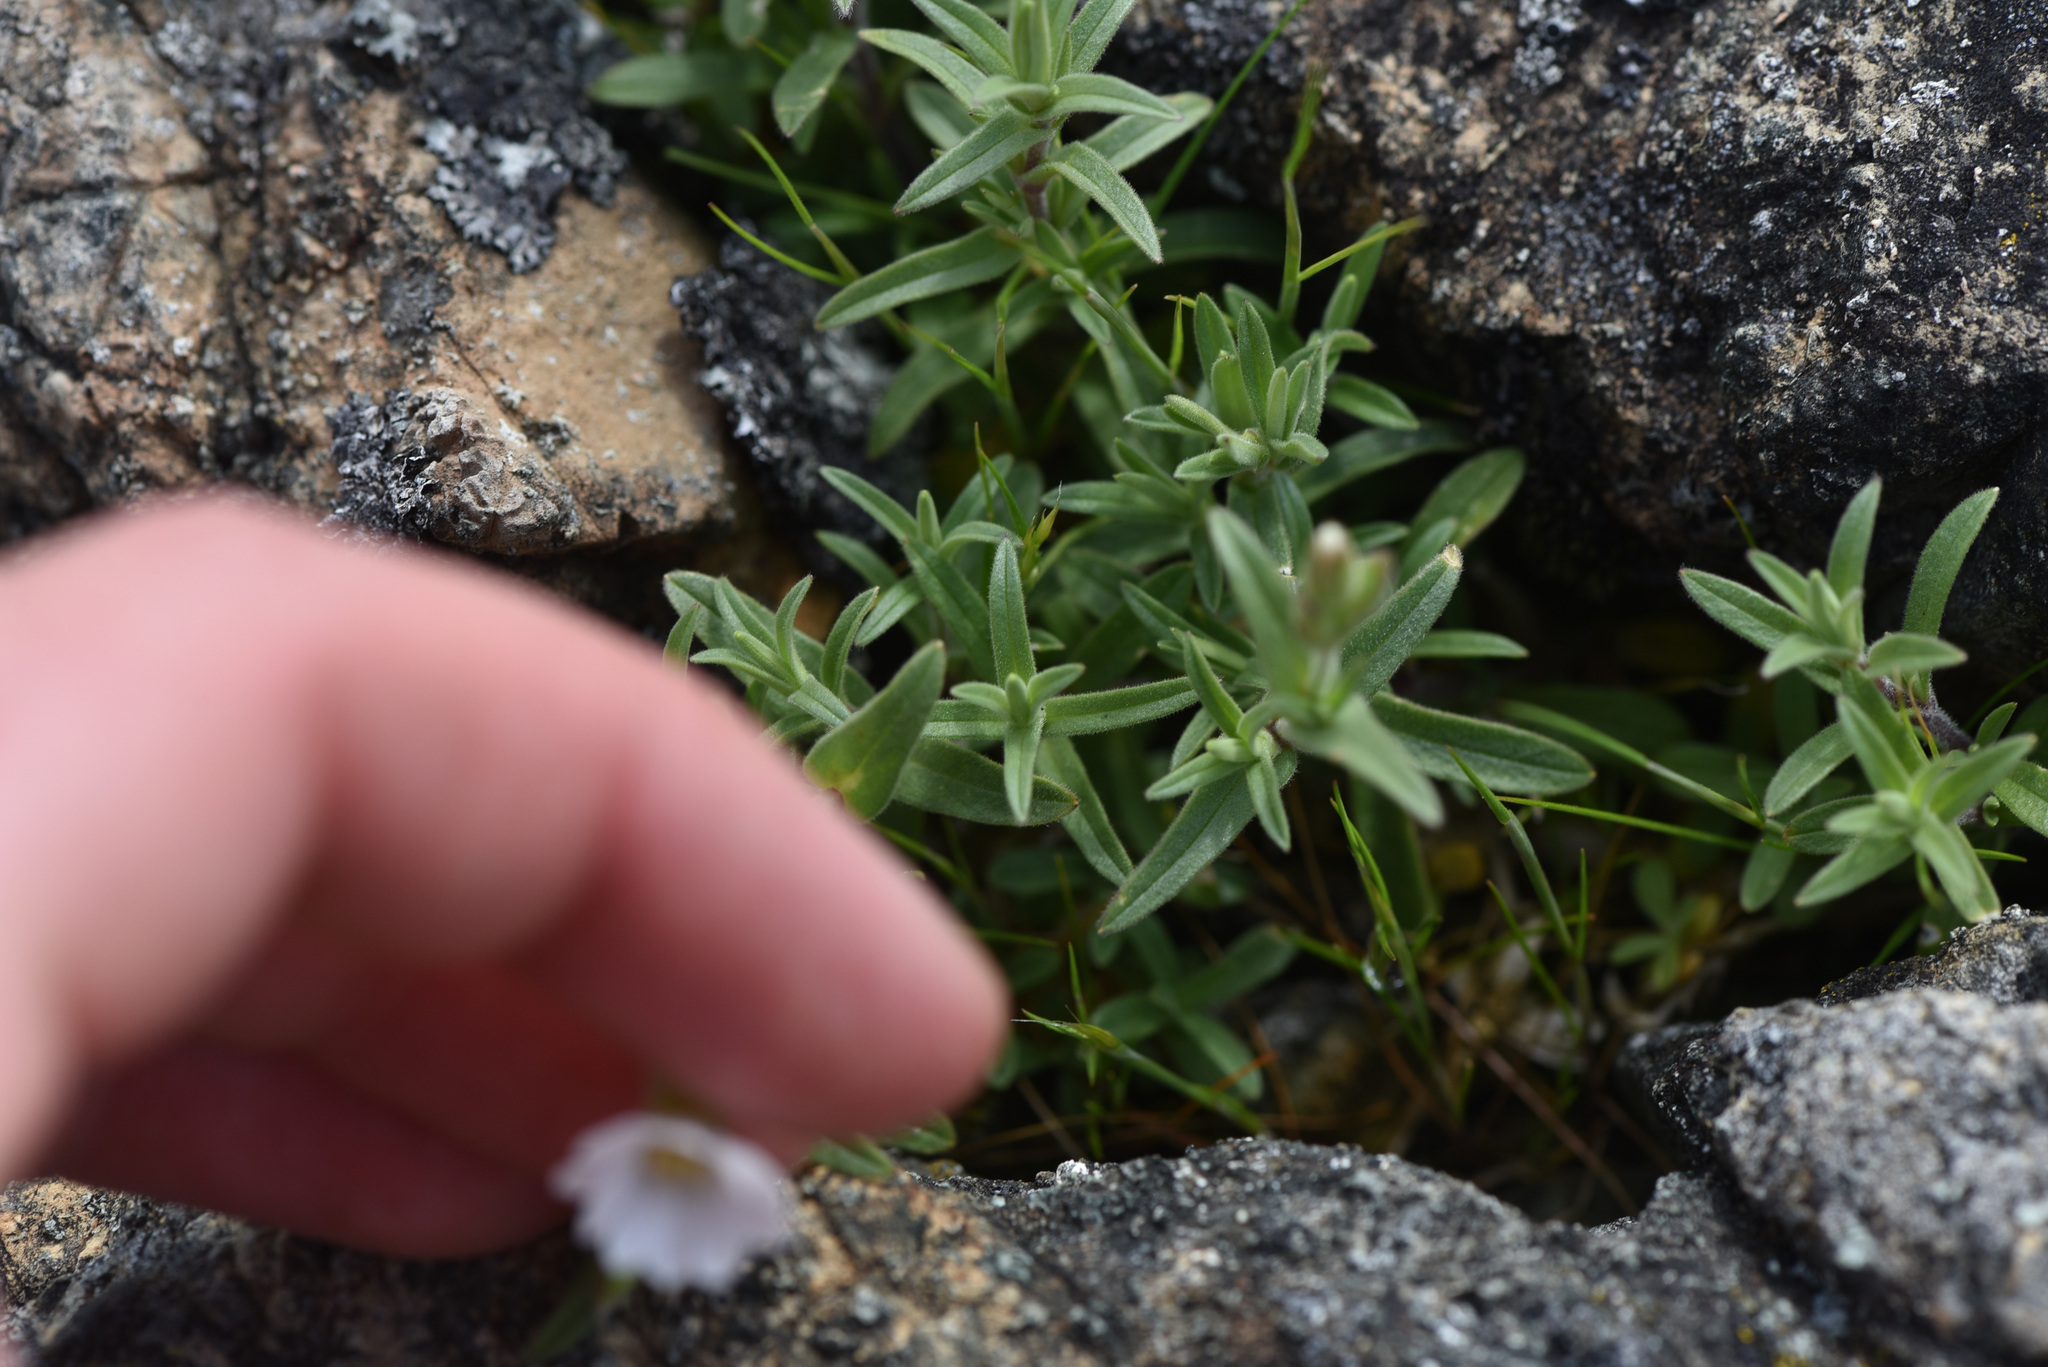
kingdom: Plantae
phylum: Tracheophyta
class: Magnoliopsida
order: Caryophyllales
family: Caryophyllaceae
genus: Cerastium
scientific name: Cerastium arvense
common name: Field mouse-ear
